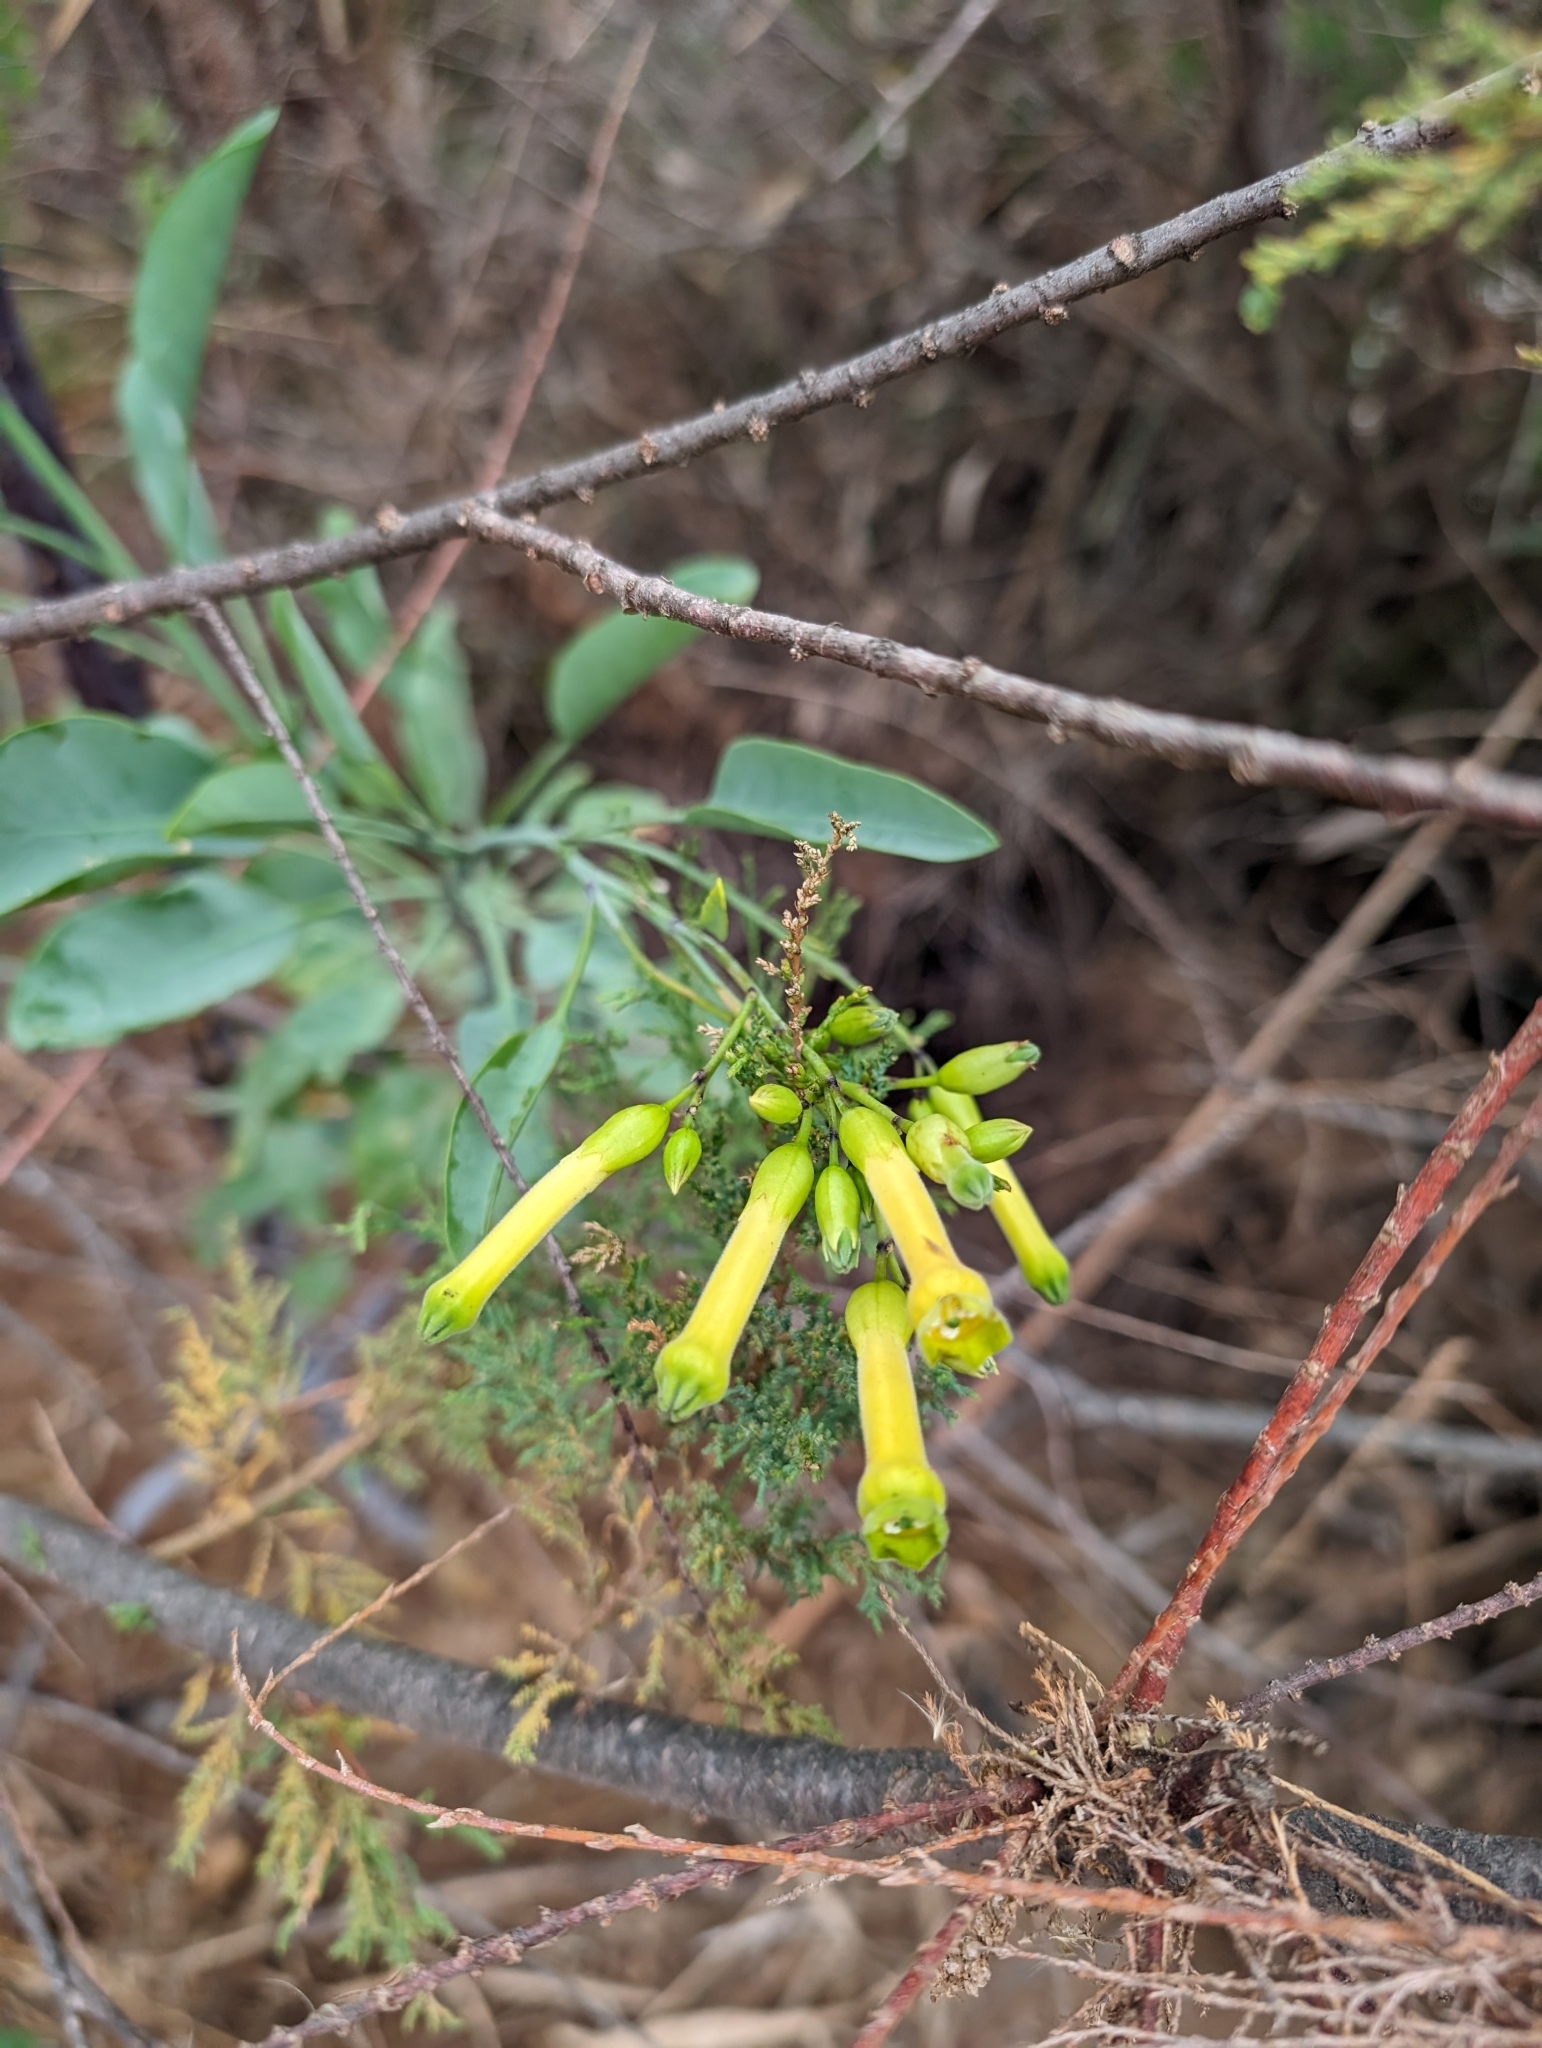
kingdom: Plantae
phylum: Tracheophyta
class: Magnoliopsida
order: Solanales
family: Solanaceae
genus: Nicotiana
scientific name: Nicotiana glauca
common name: Tree tobacco
